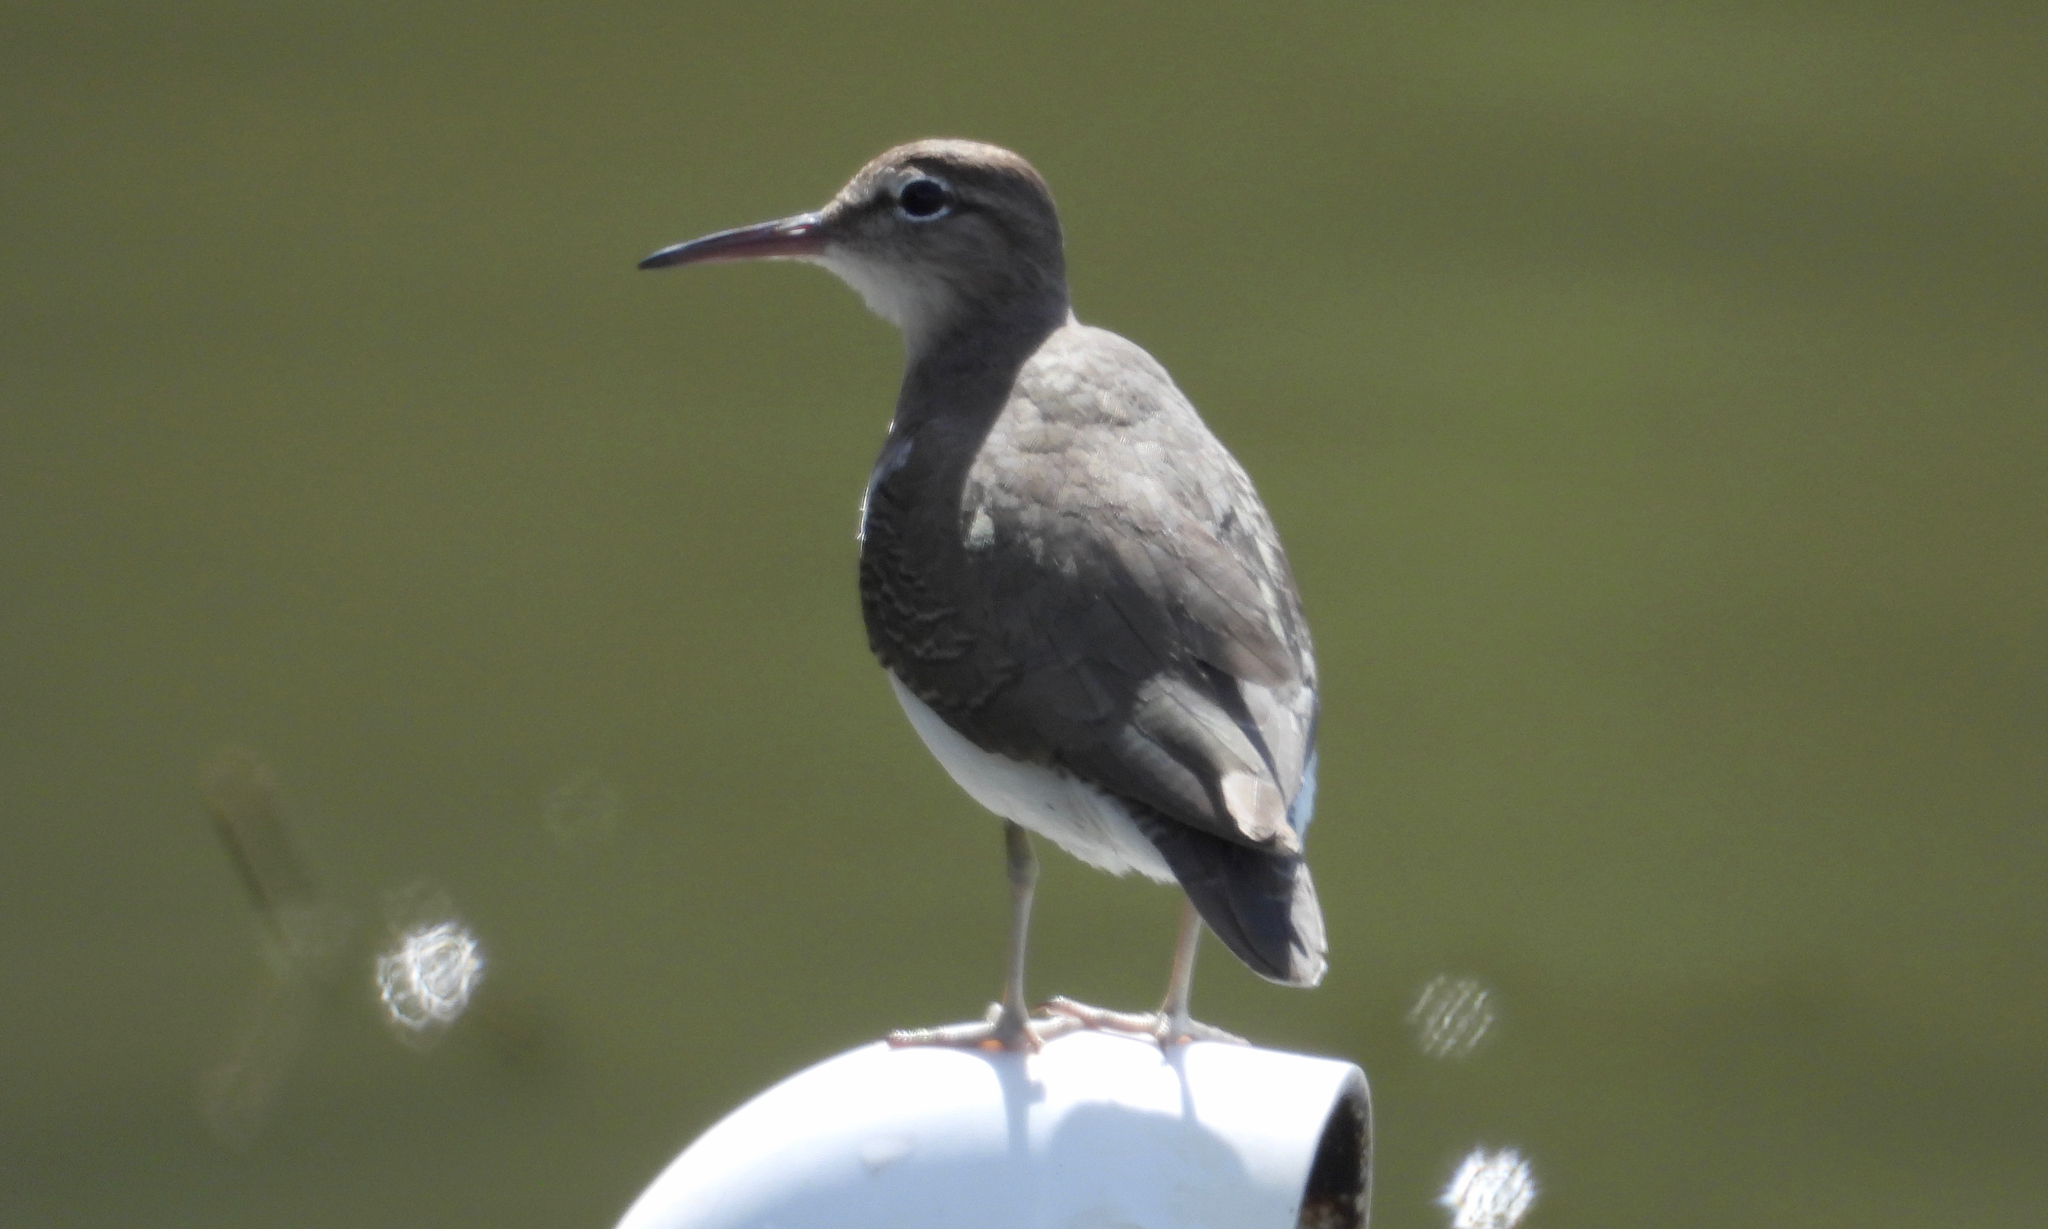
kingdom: Animalia
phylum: Chordata
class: Aves
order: Charadriiformes
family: Scolopacidae
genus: Actitis
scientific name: Actitis macularius
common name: Spotted sandpiper
